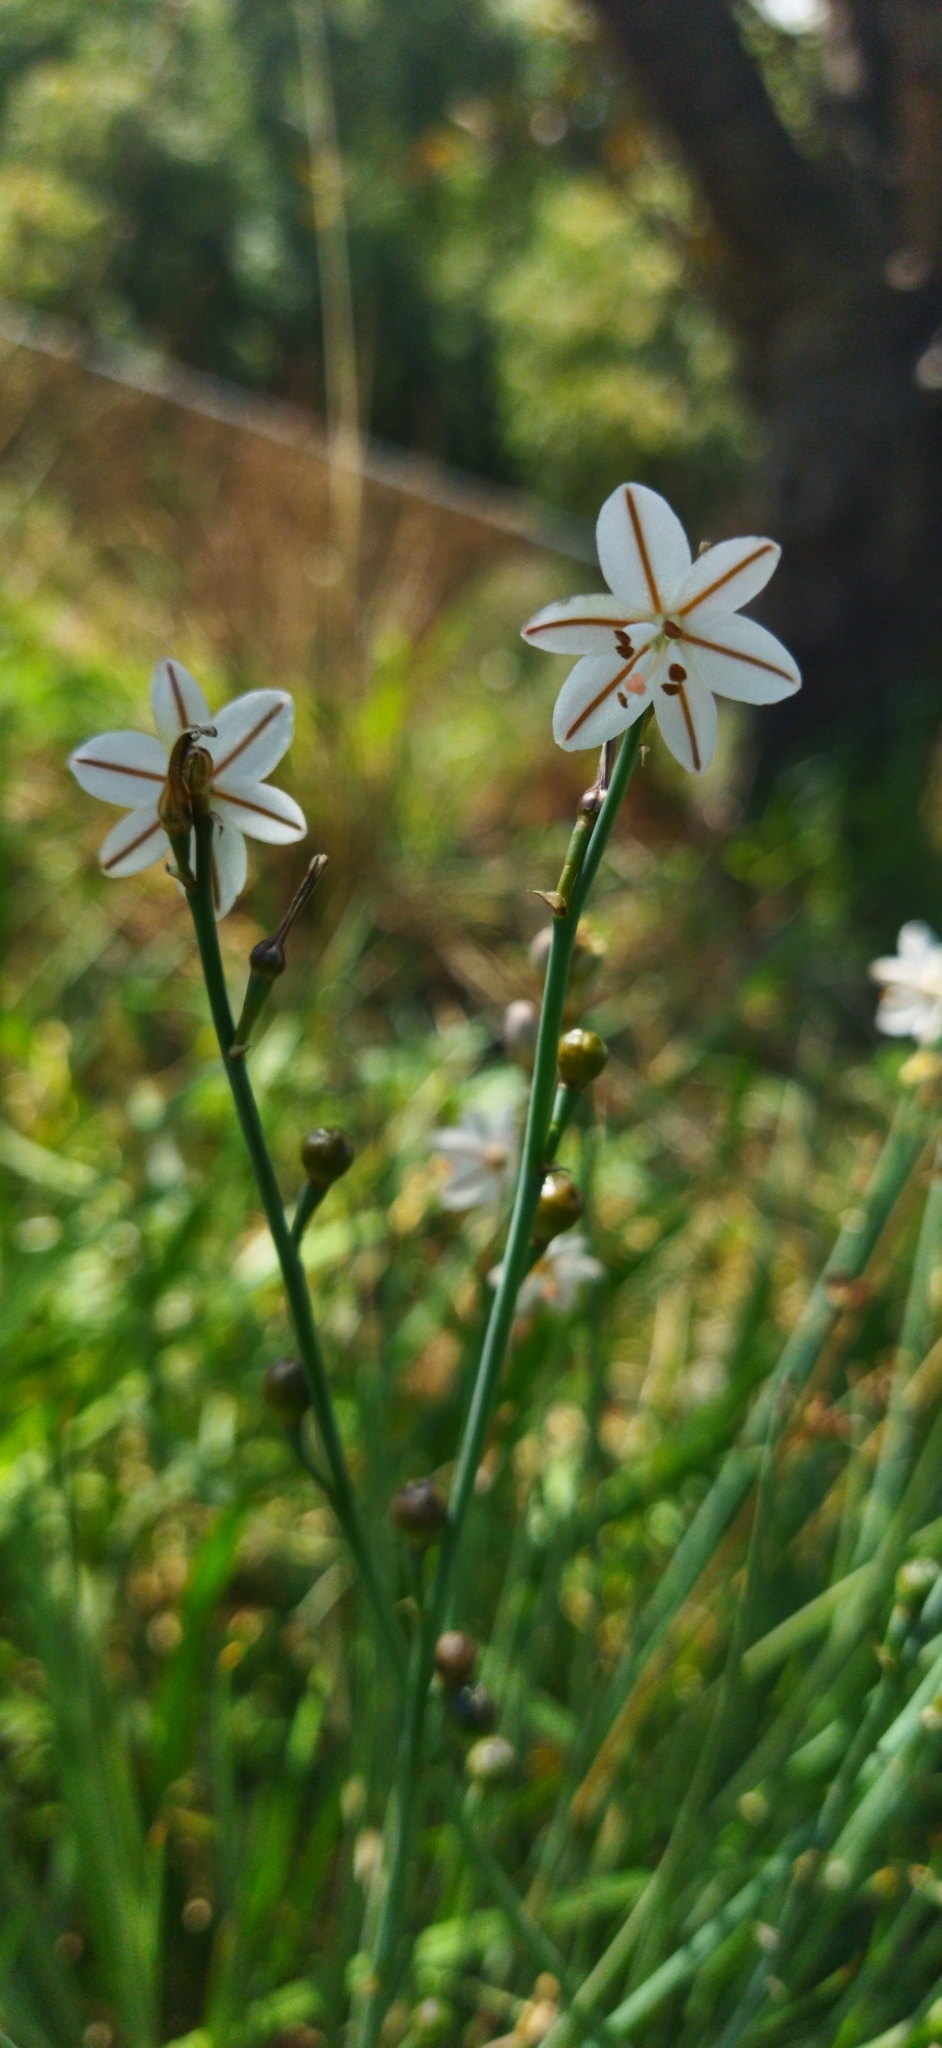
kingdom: Plantae
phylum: Tracheophyta
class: Liliopsida
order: Asparagales
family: Asphodelaceae
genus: Asphodelus
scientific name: Asphodelus fistulosus
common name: Onionweed
